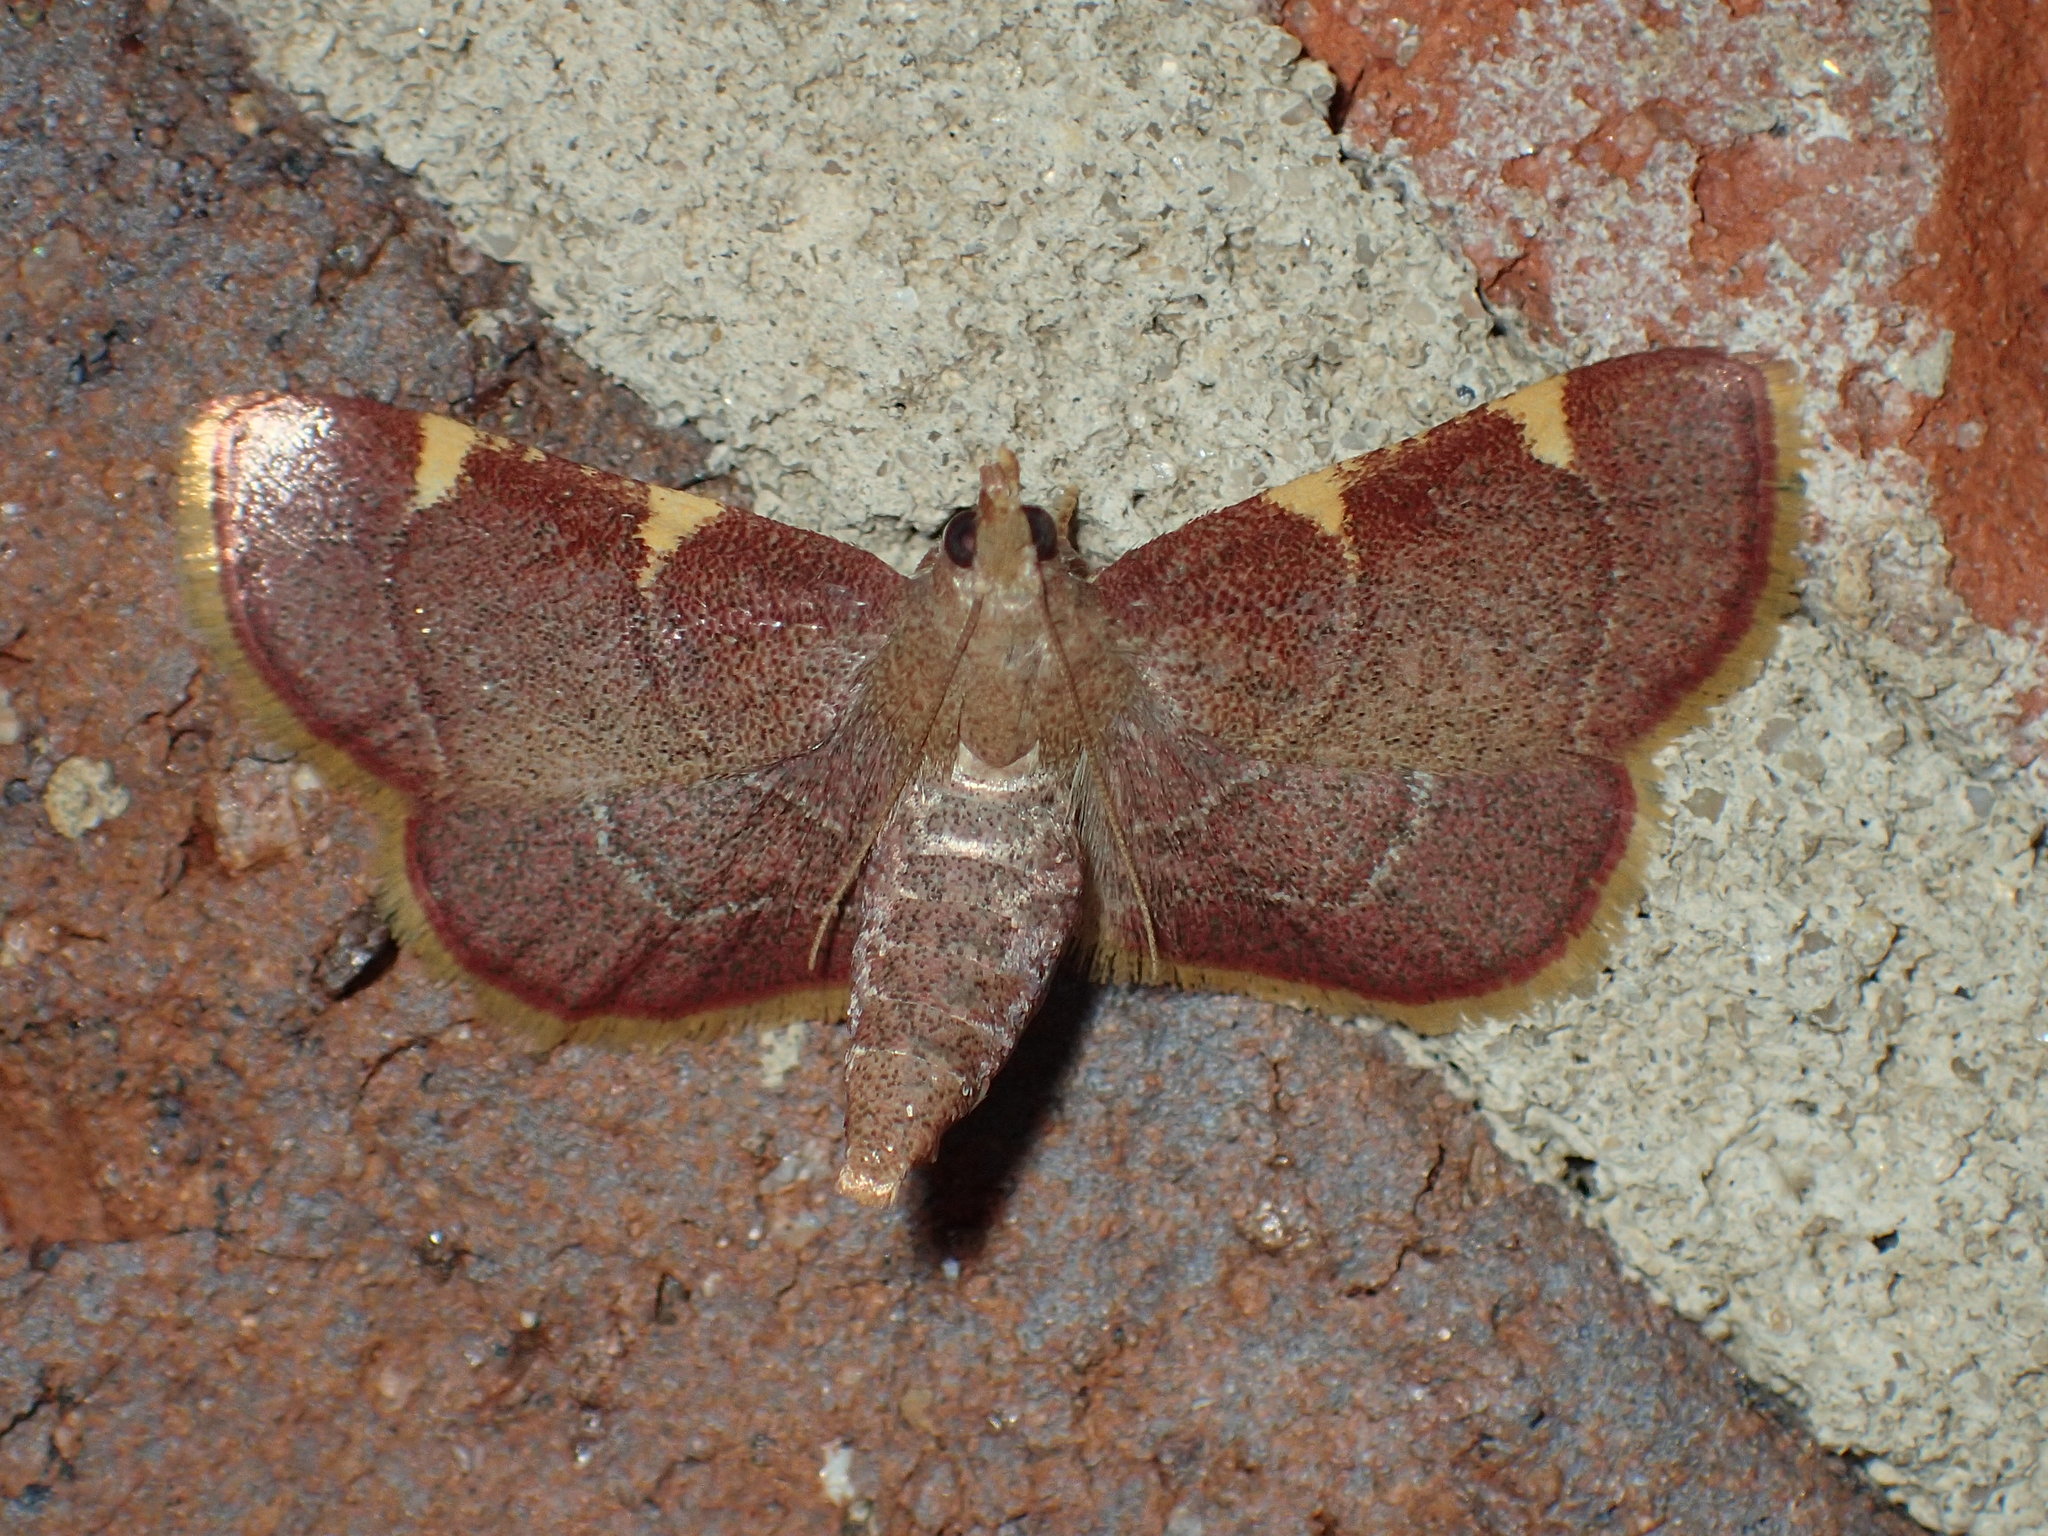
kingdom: Animalia
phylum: Arthropoda
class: Insecta
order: Lepidoptera
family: Pyralidae
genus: Hypsopygia
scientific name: Hypsopygia olinalis
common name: Yellow-fringed dolichomia moth
